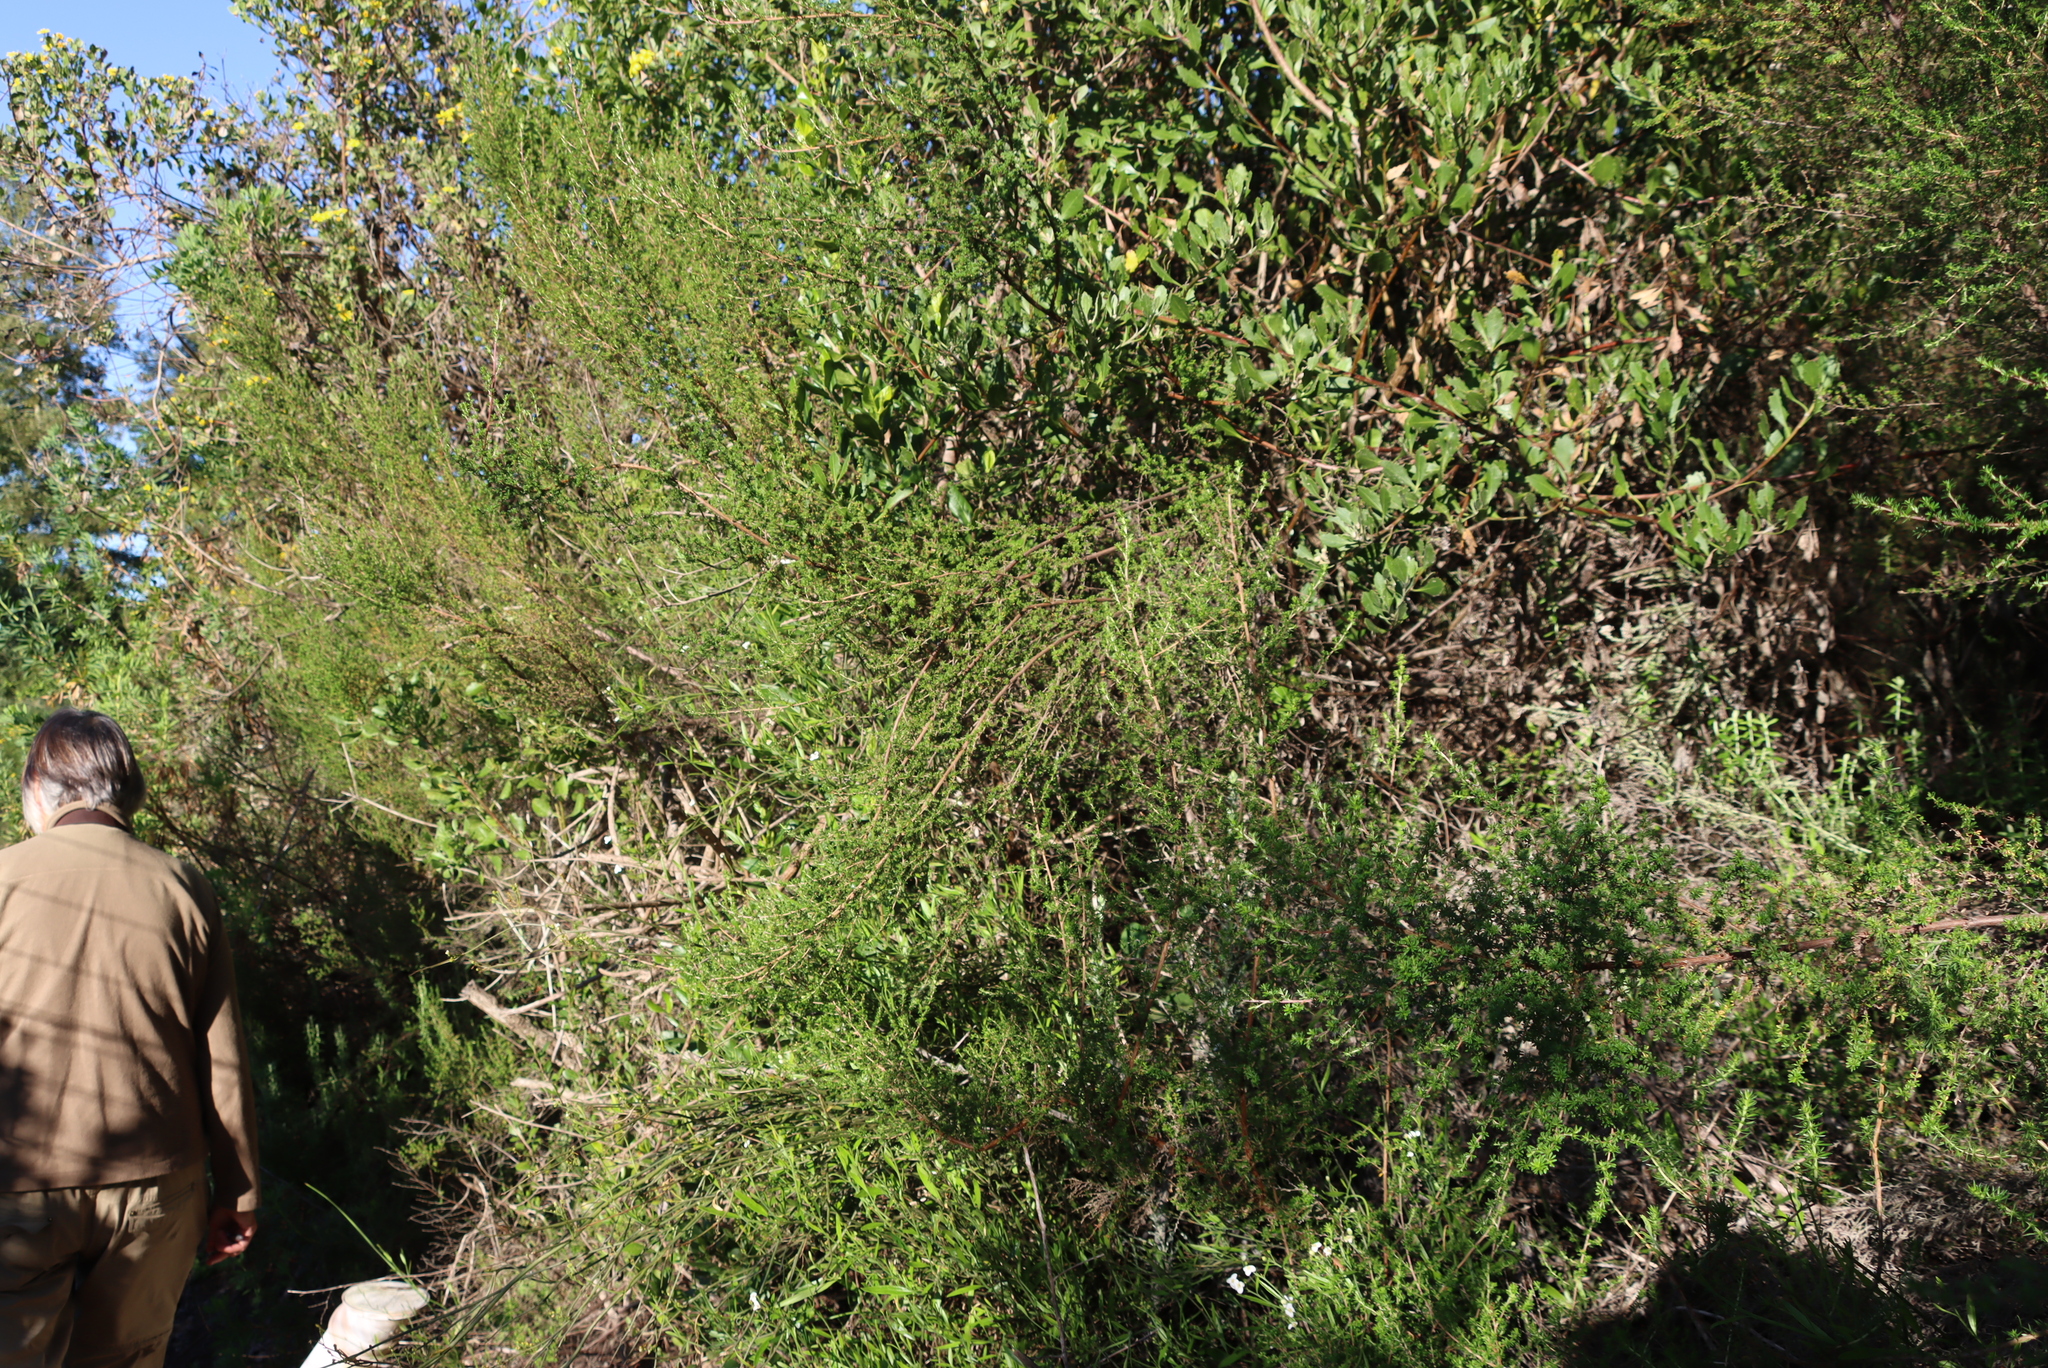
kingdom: Plantae
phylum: Tracheophyta
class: Magnoliopsida
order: Rosales
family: Rosaceae
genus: Cliffortia
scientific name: Cliffortia serpyllifolia
